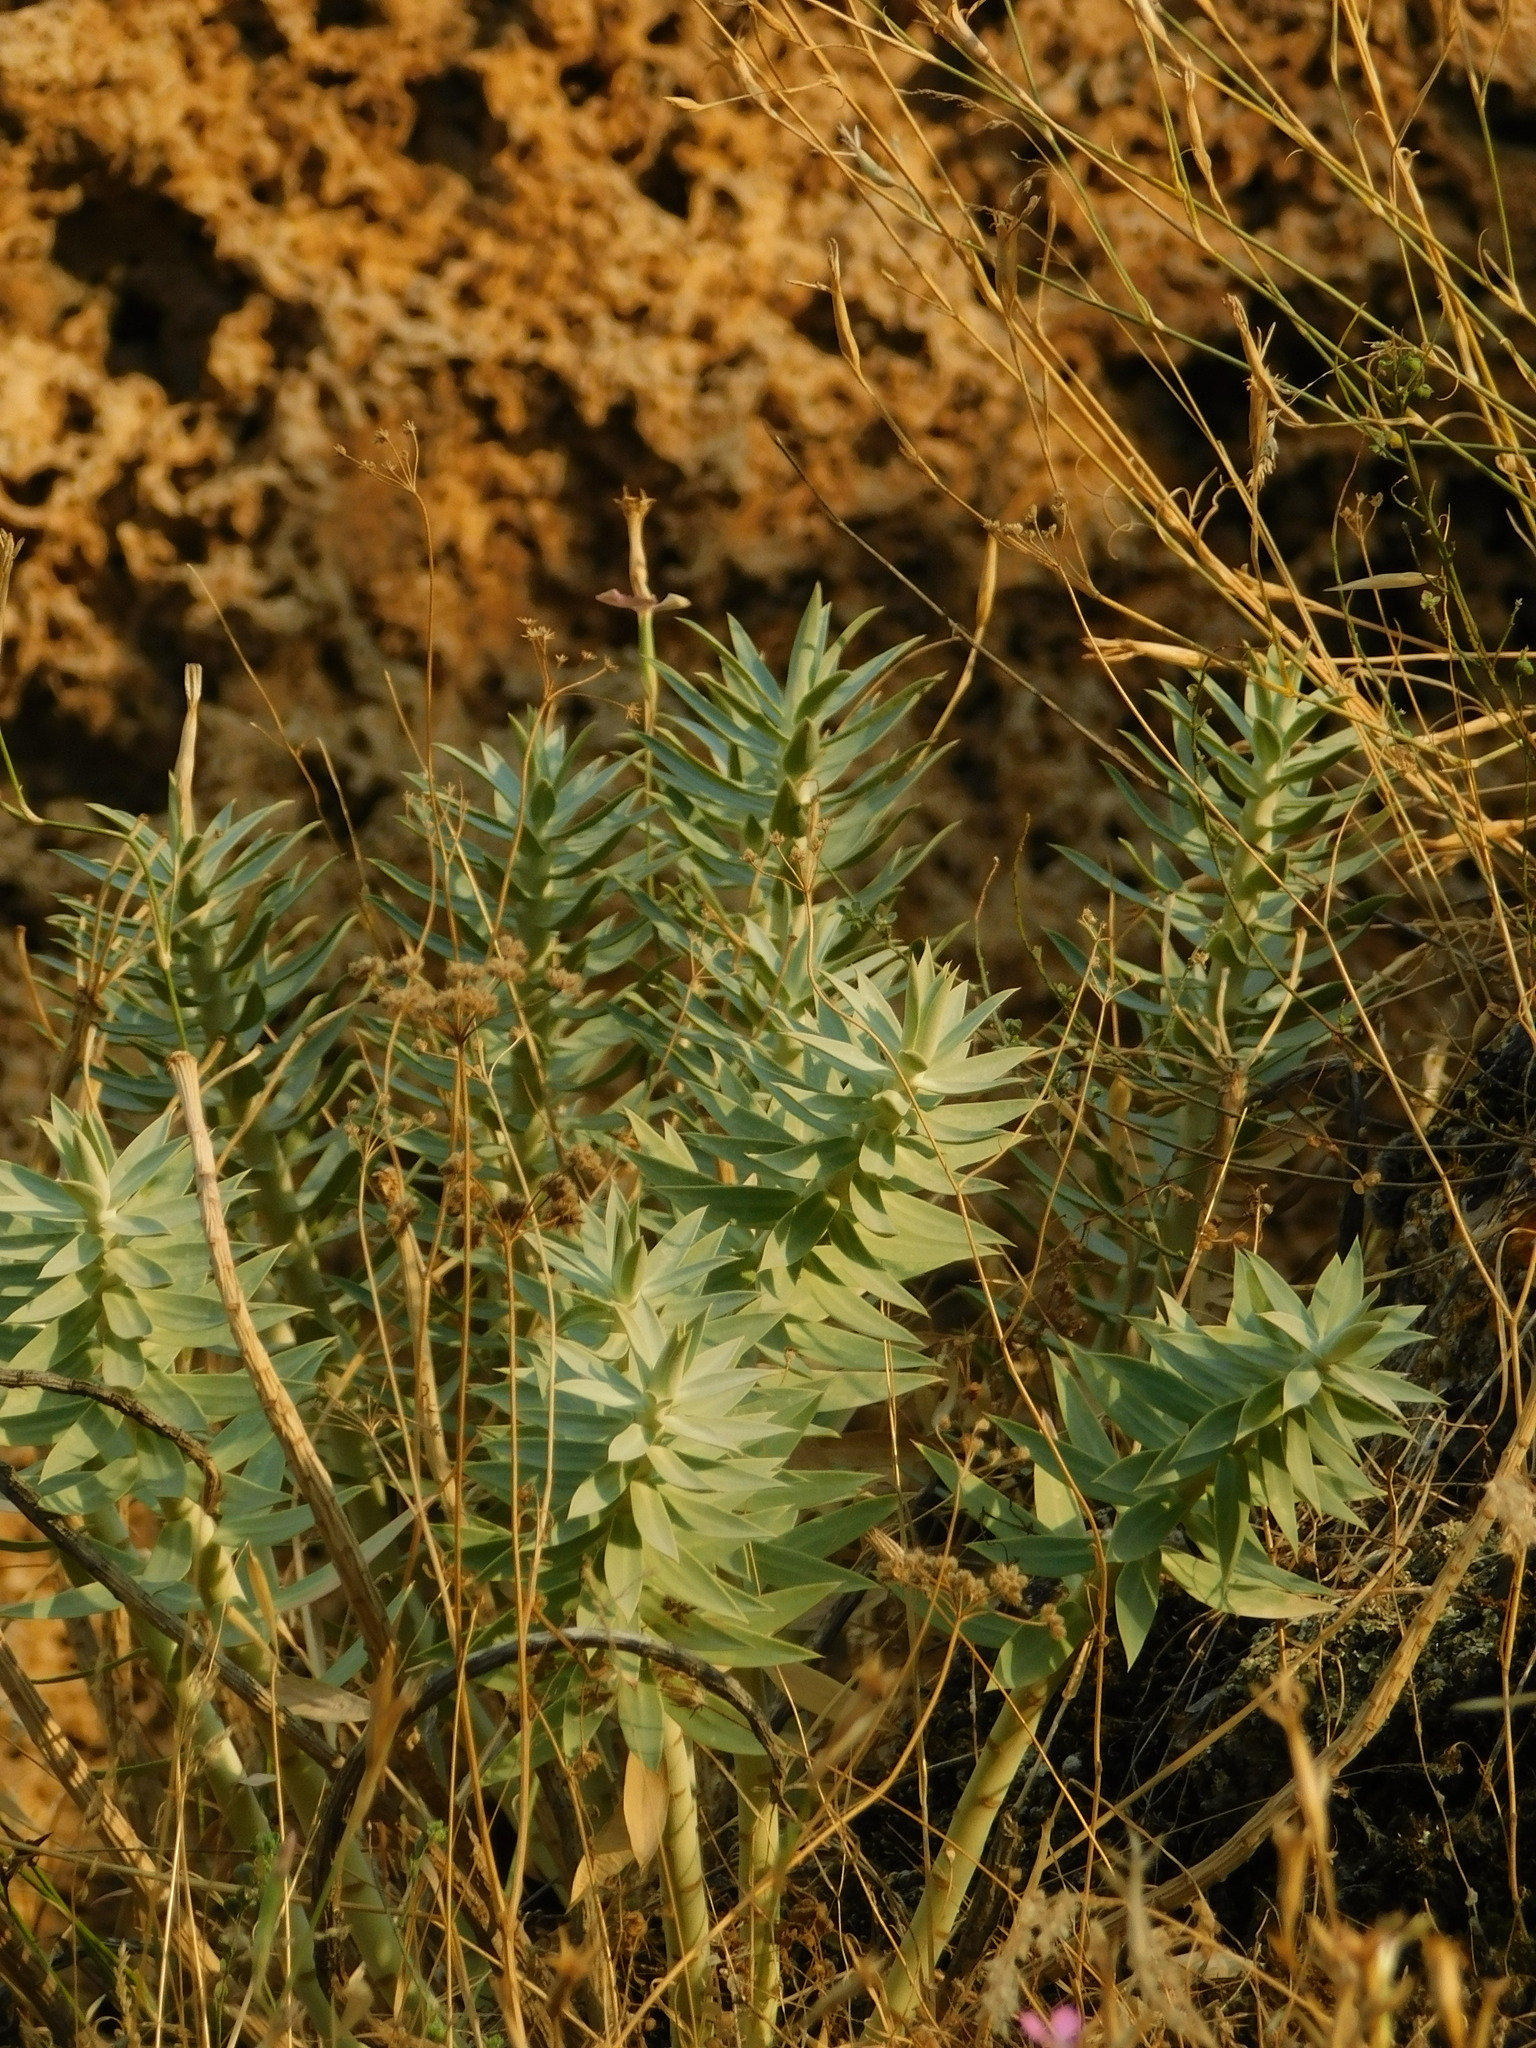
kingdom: Plantae
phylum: Tracheophyta
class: Magnoliopsida
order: Malpighiales
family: Euphorbiaceae
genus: Euphorbia
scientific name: Euphorbia rigida
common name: Upright myrtle spurge
